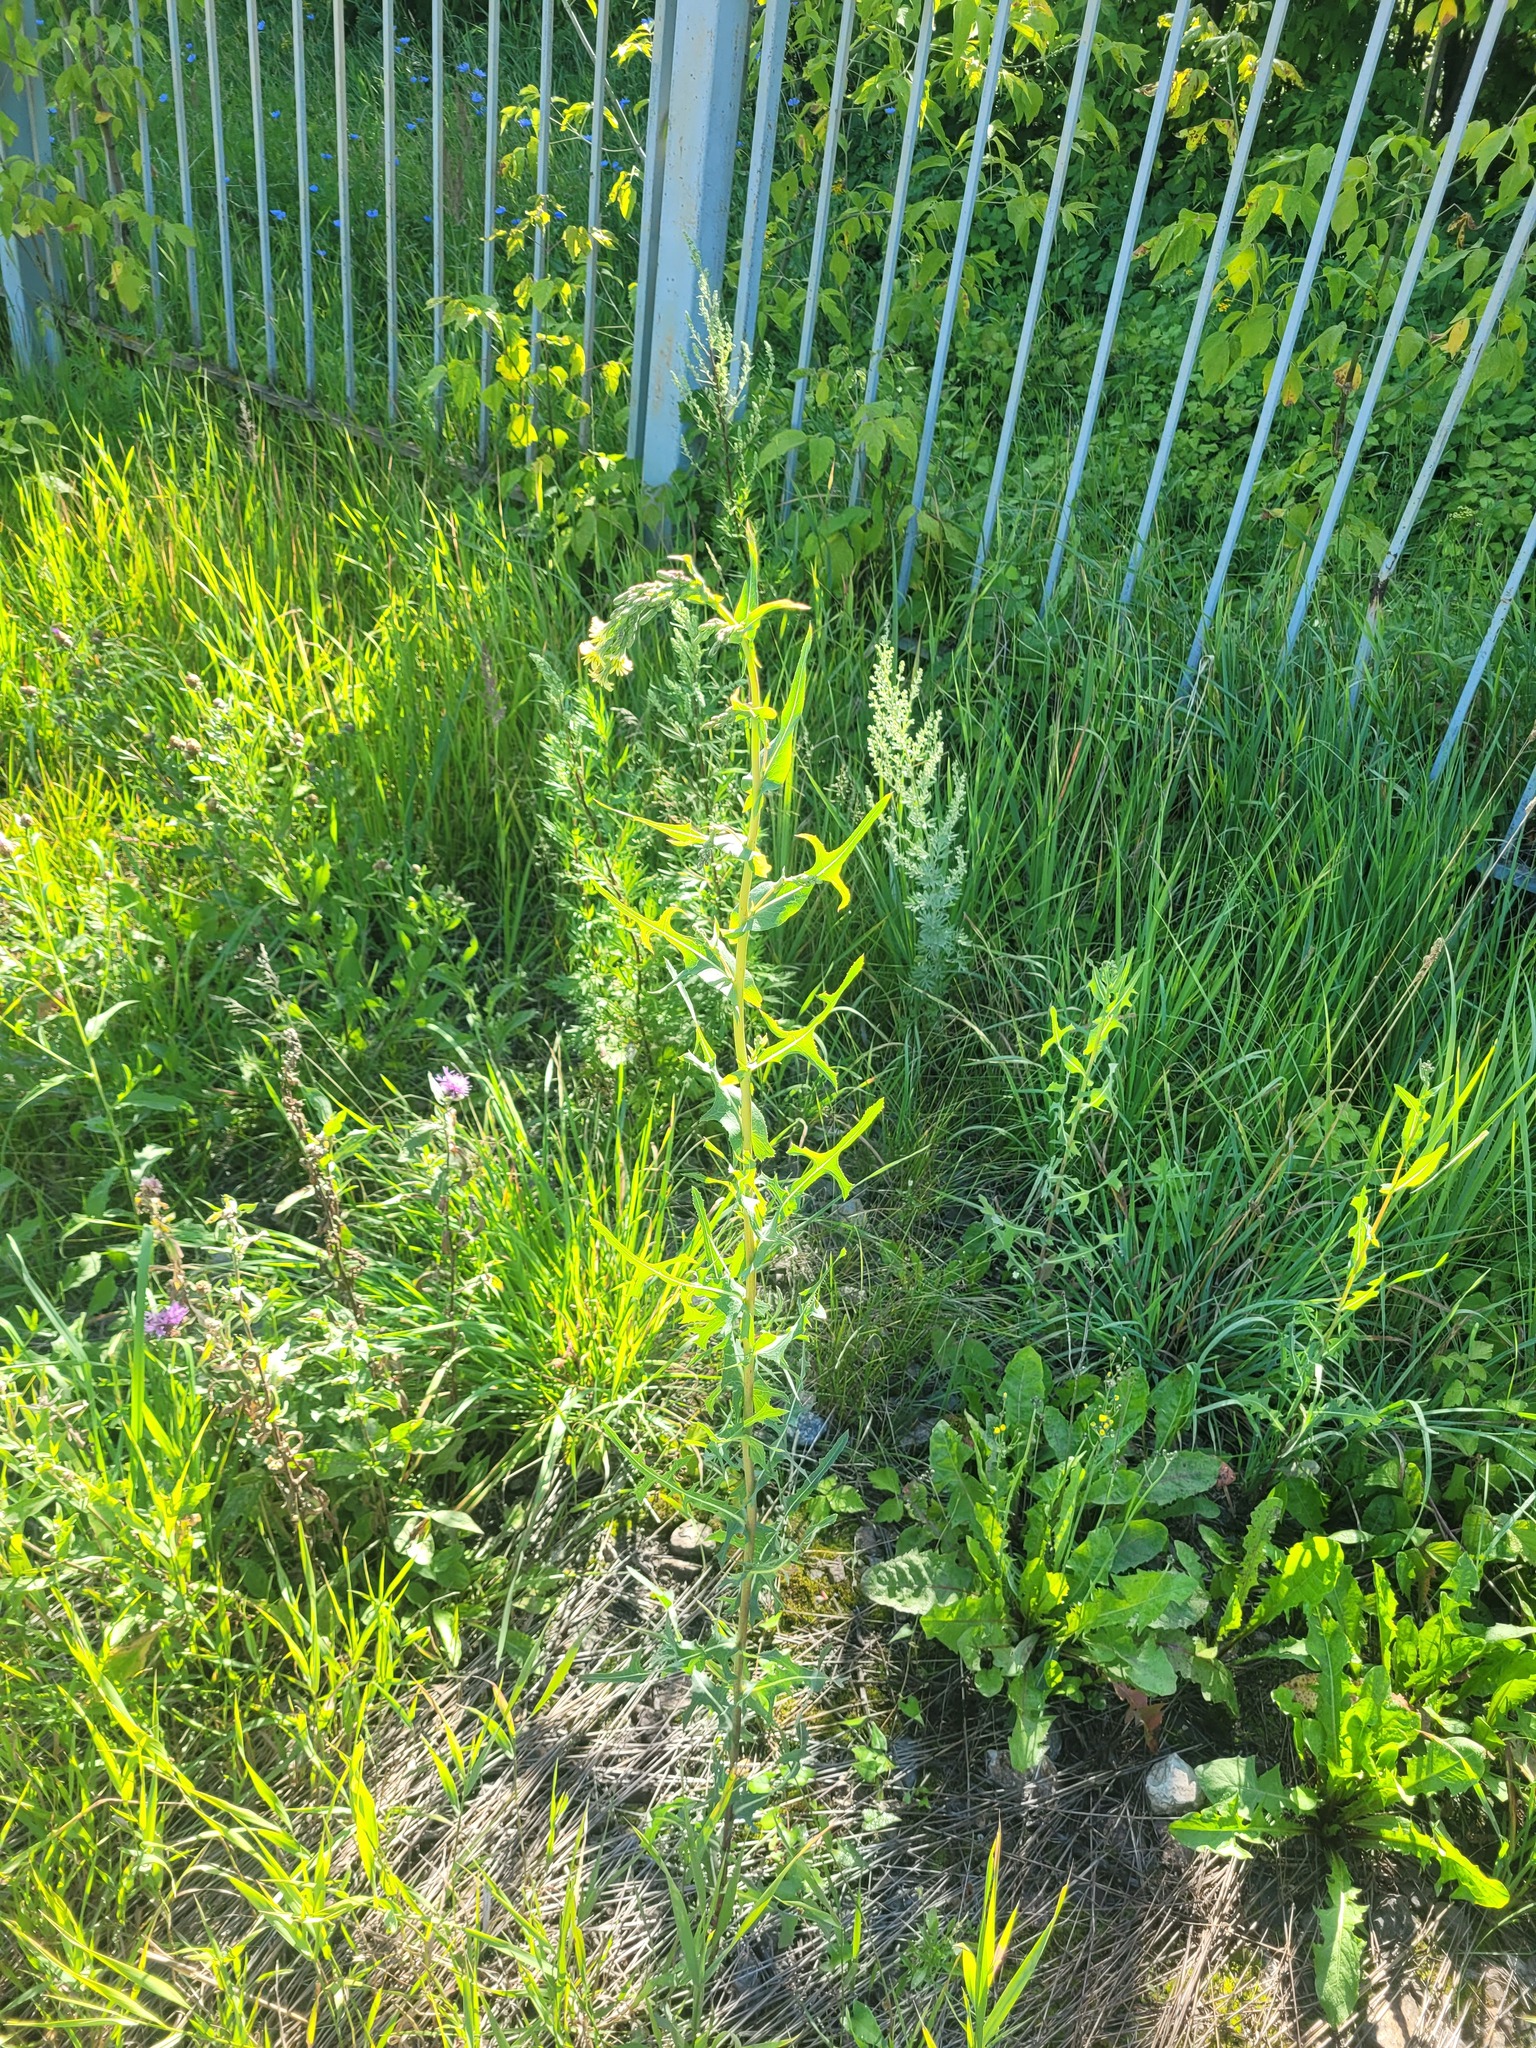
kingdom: Plantae
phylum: Tracheophyta
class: Magnoliopsida
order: Asterales
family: Asteraceae
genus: Lactuca
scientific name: Lactuca serriola
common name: Prickly lettuce
